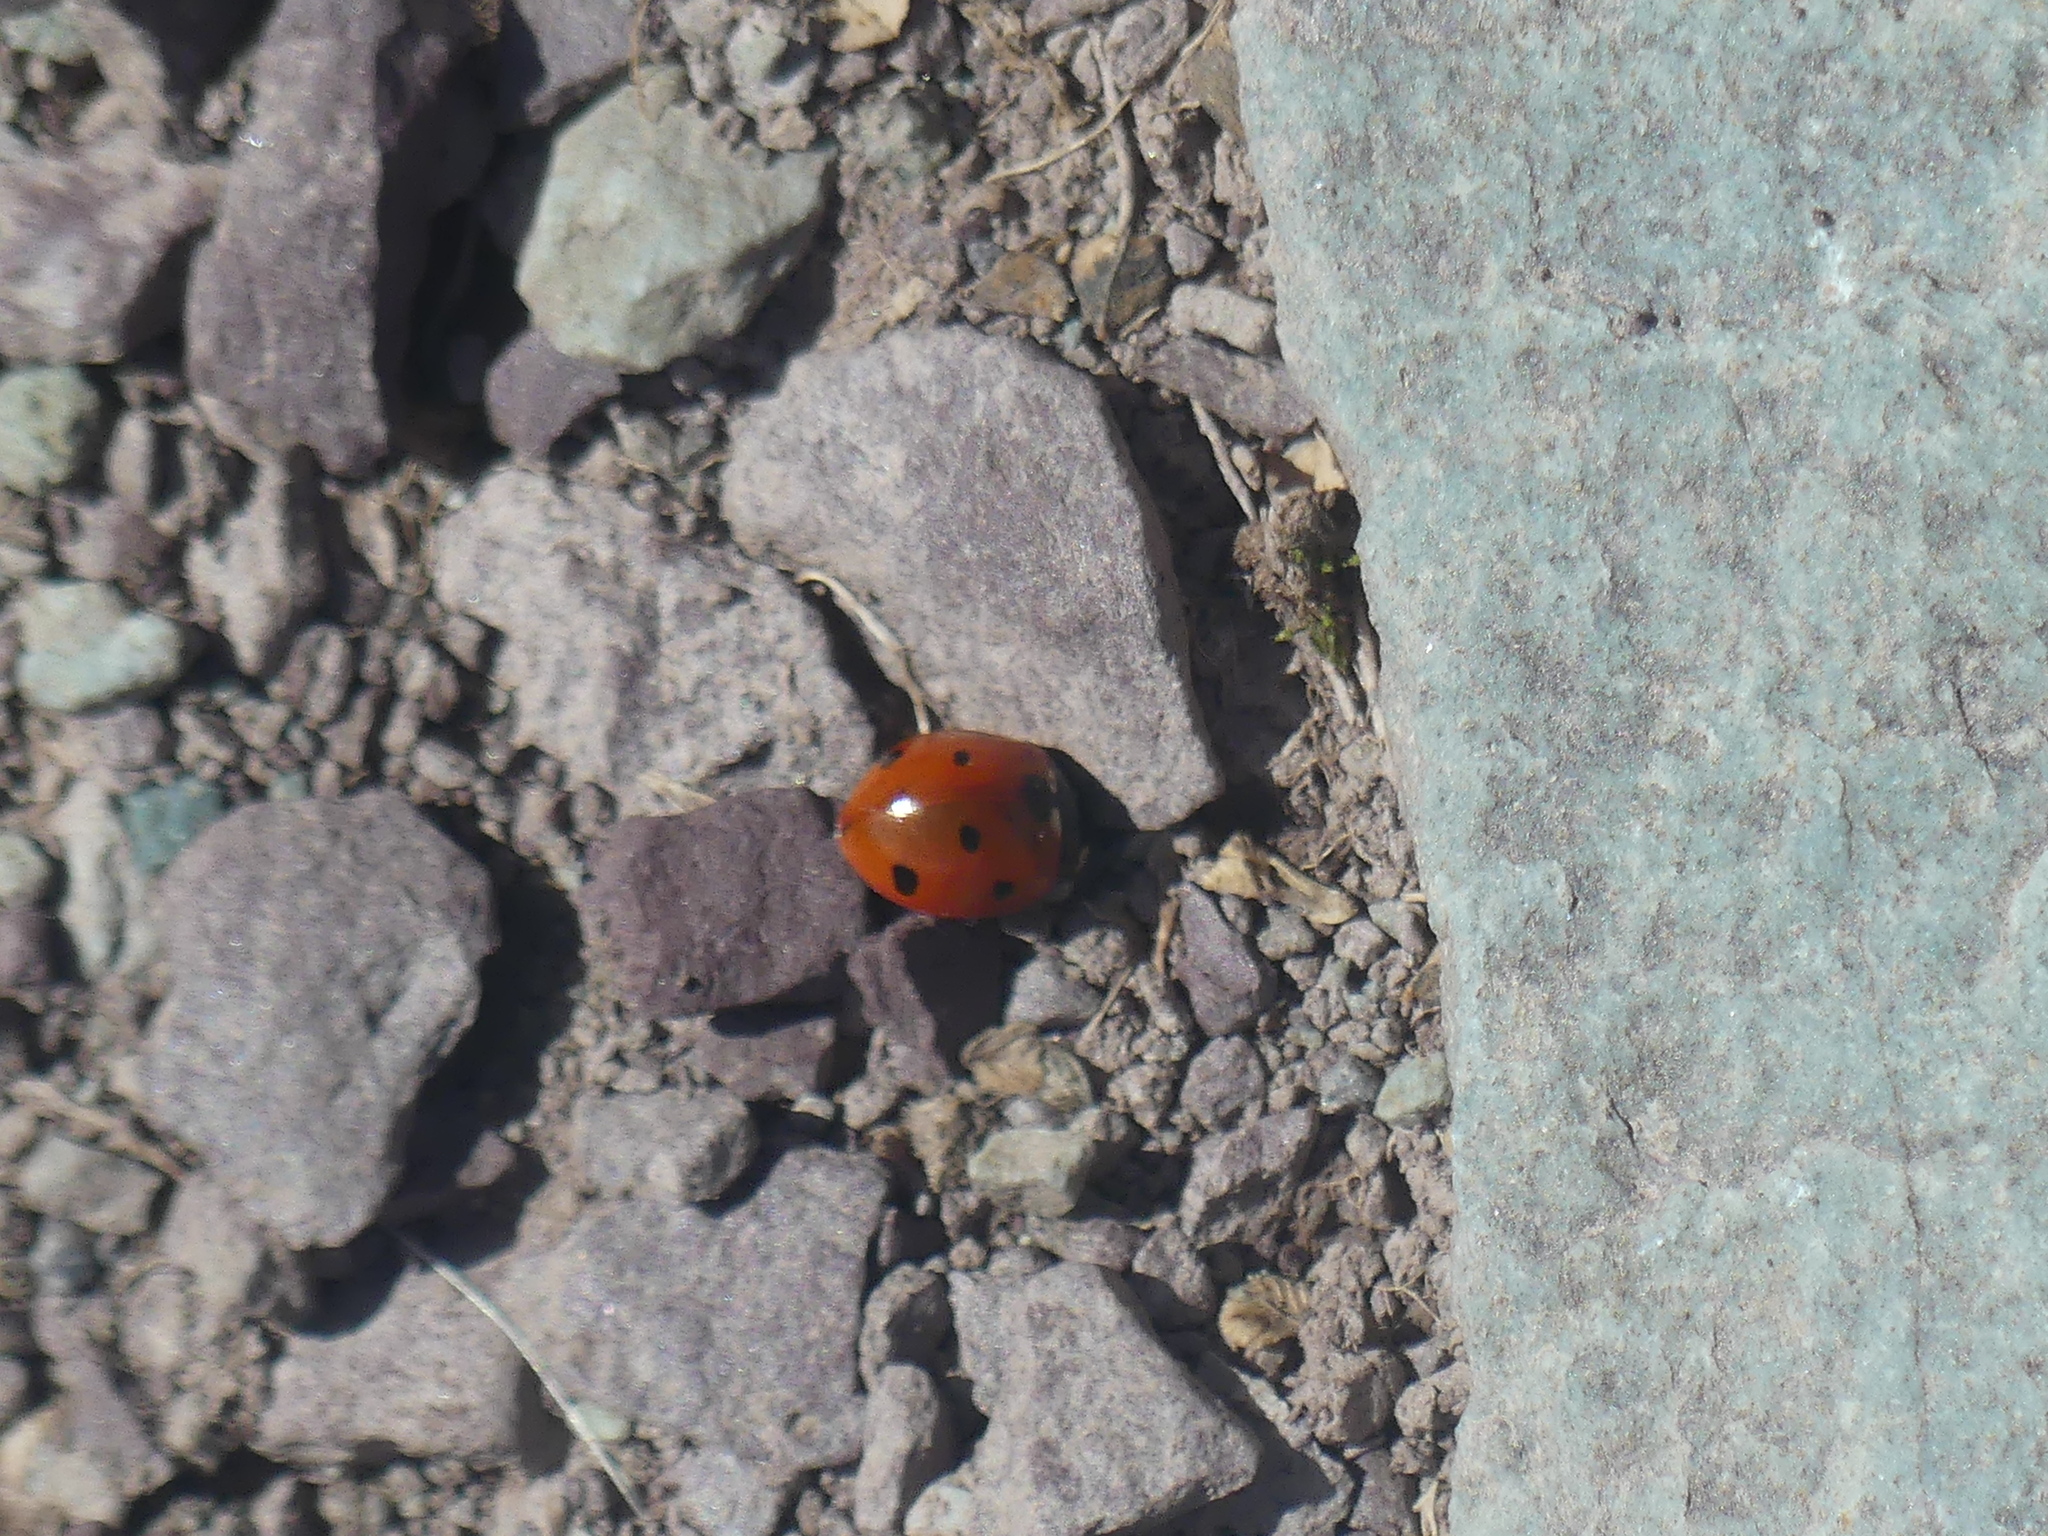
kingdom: Animalia
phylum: Arthropoda
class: Insecta
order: Coleoptera
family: Coccinellidae
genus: Coccinella
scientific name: Coccinella septempunctata
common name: Sevenspotted lady beetle
